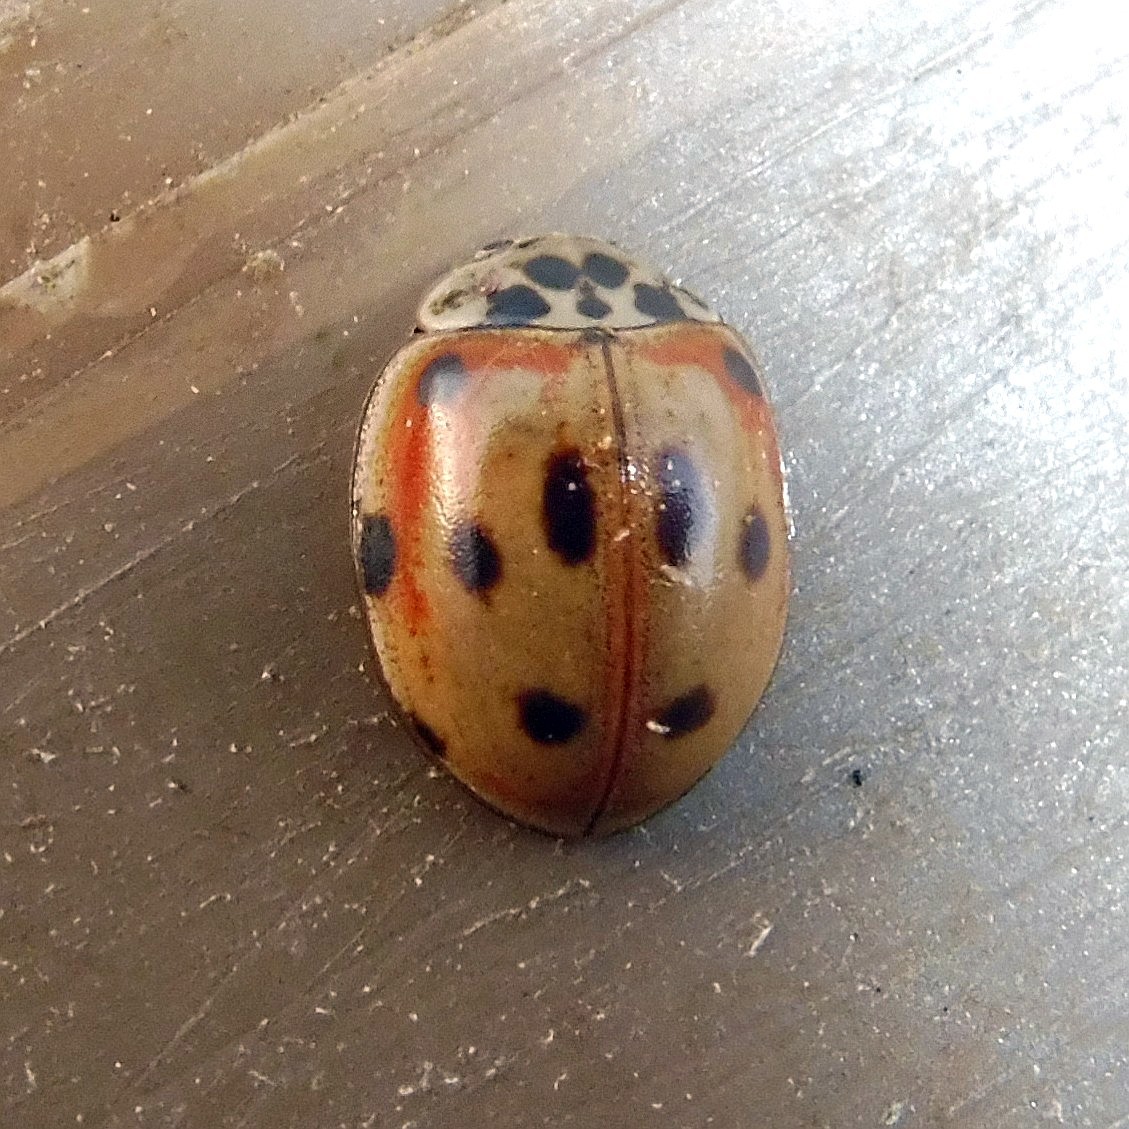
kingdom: Animalia
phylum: Arthropoda
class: Insecta
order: Coleoptera
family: Coccinellidae
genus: Adalia
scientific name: Adalia decempunctata
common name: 10-spot ladybird
